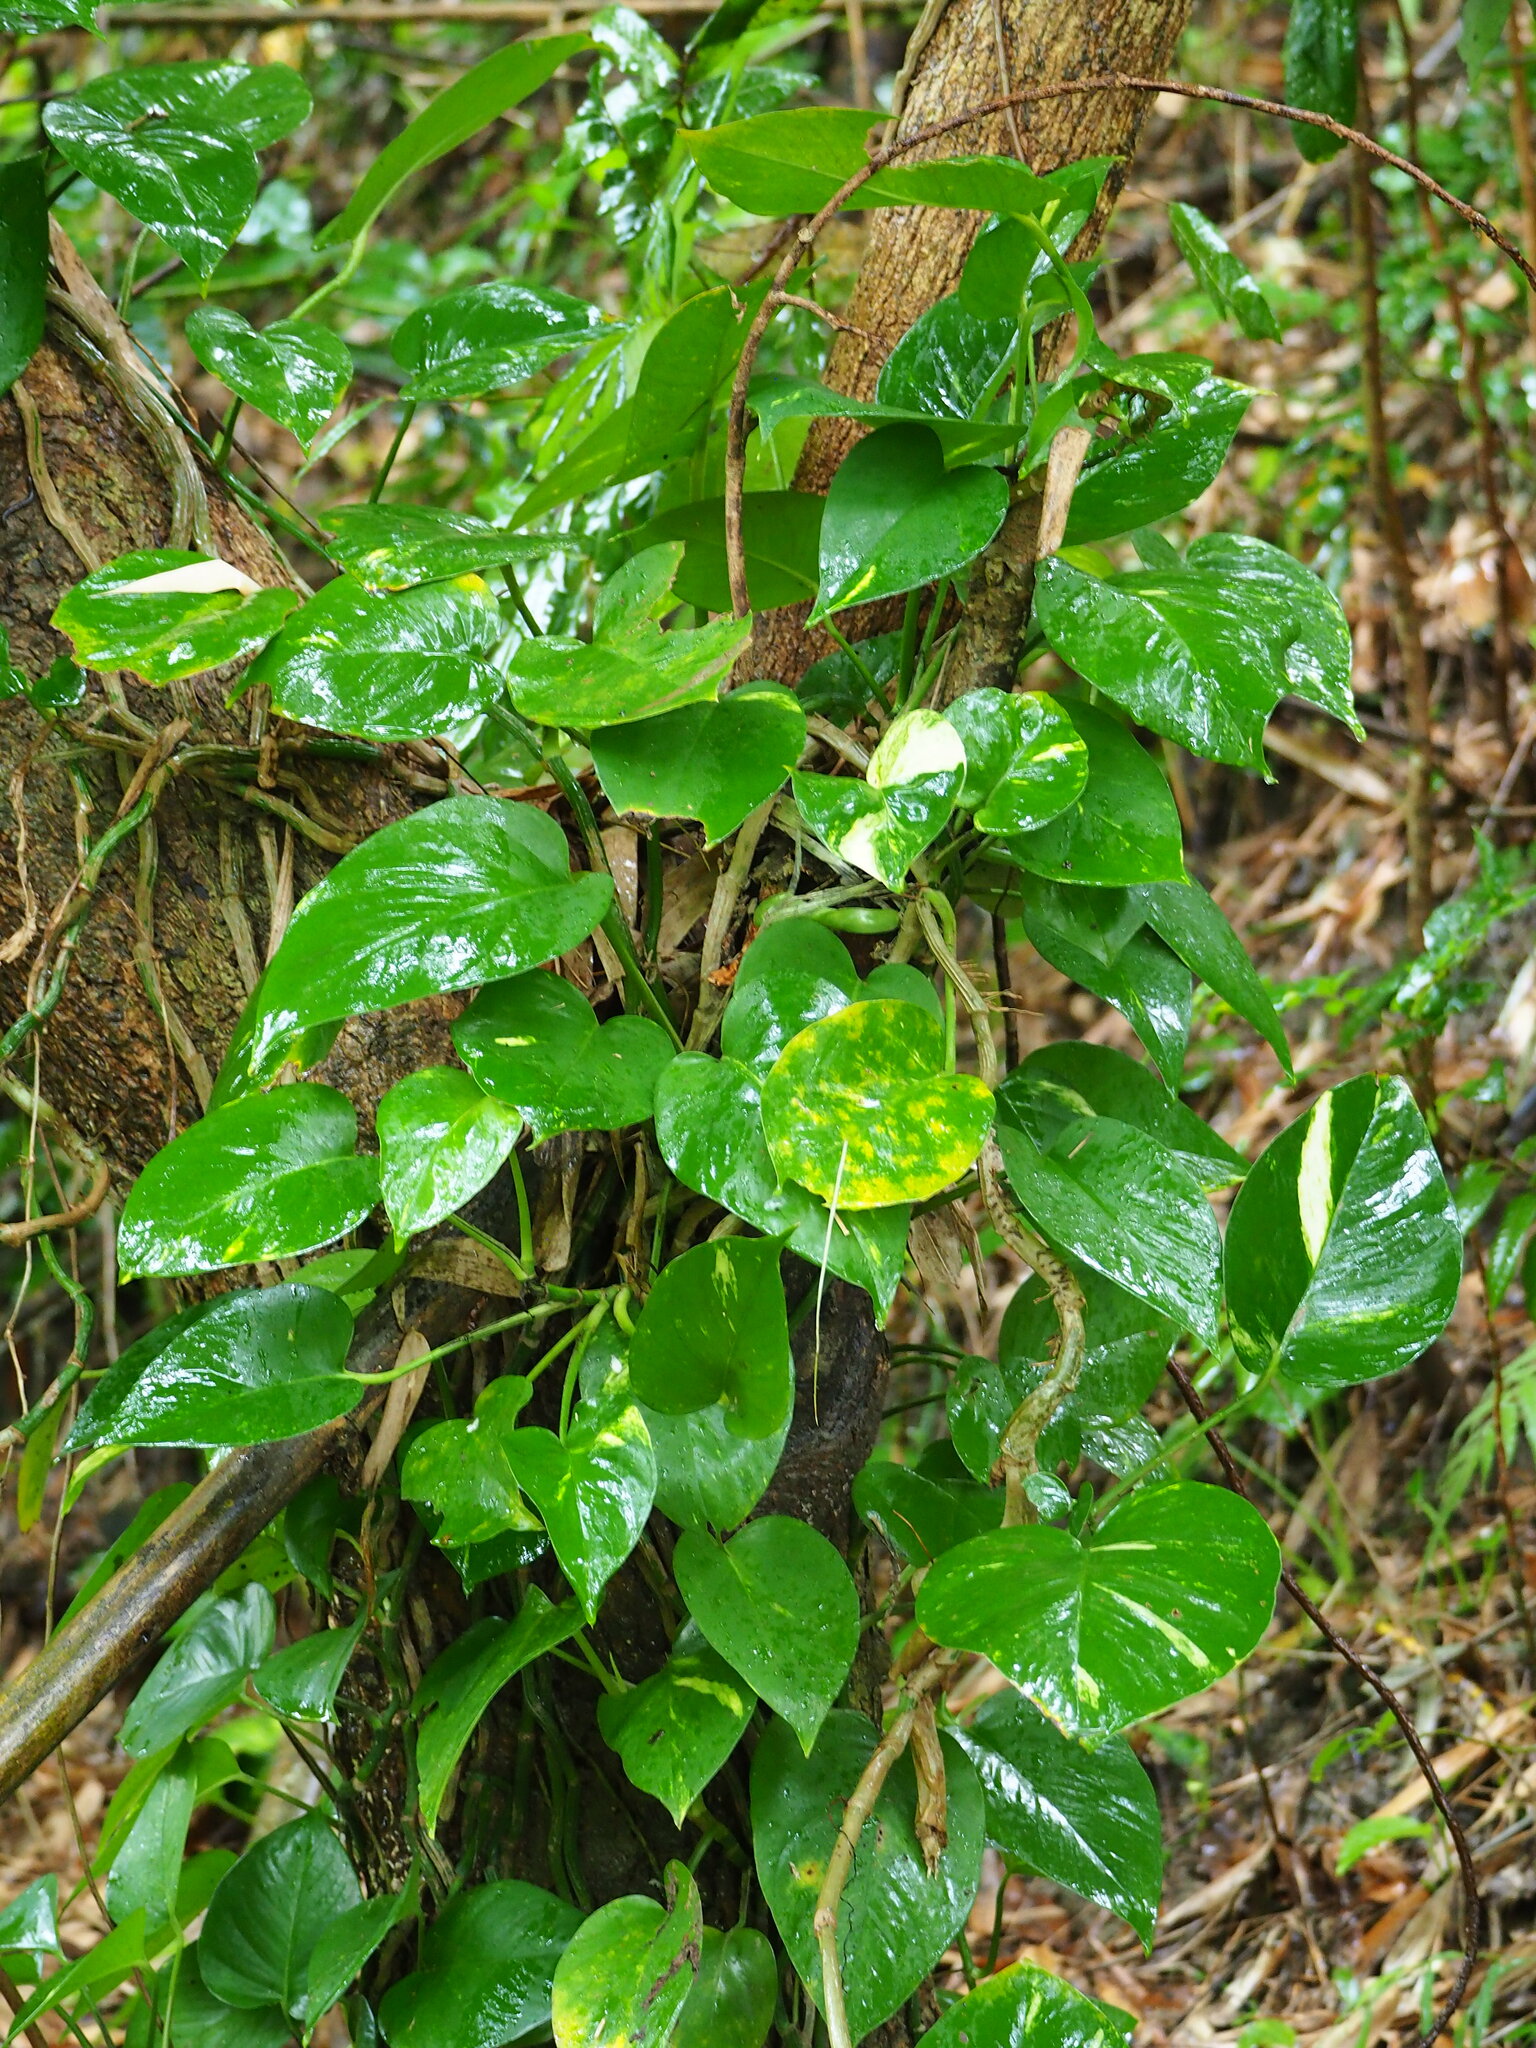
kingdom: Plantae
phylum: Tracheophyta
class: Liliopsida
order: Alismatales
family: Araceae
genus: Epipremnum
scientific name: Epipremnum aureum
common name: Golden hunter's-robe
